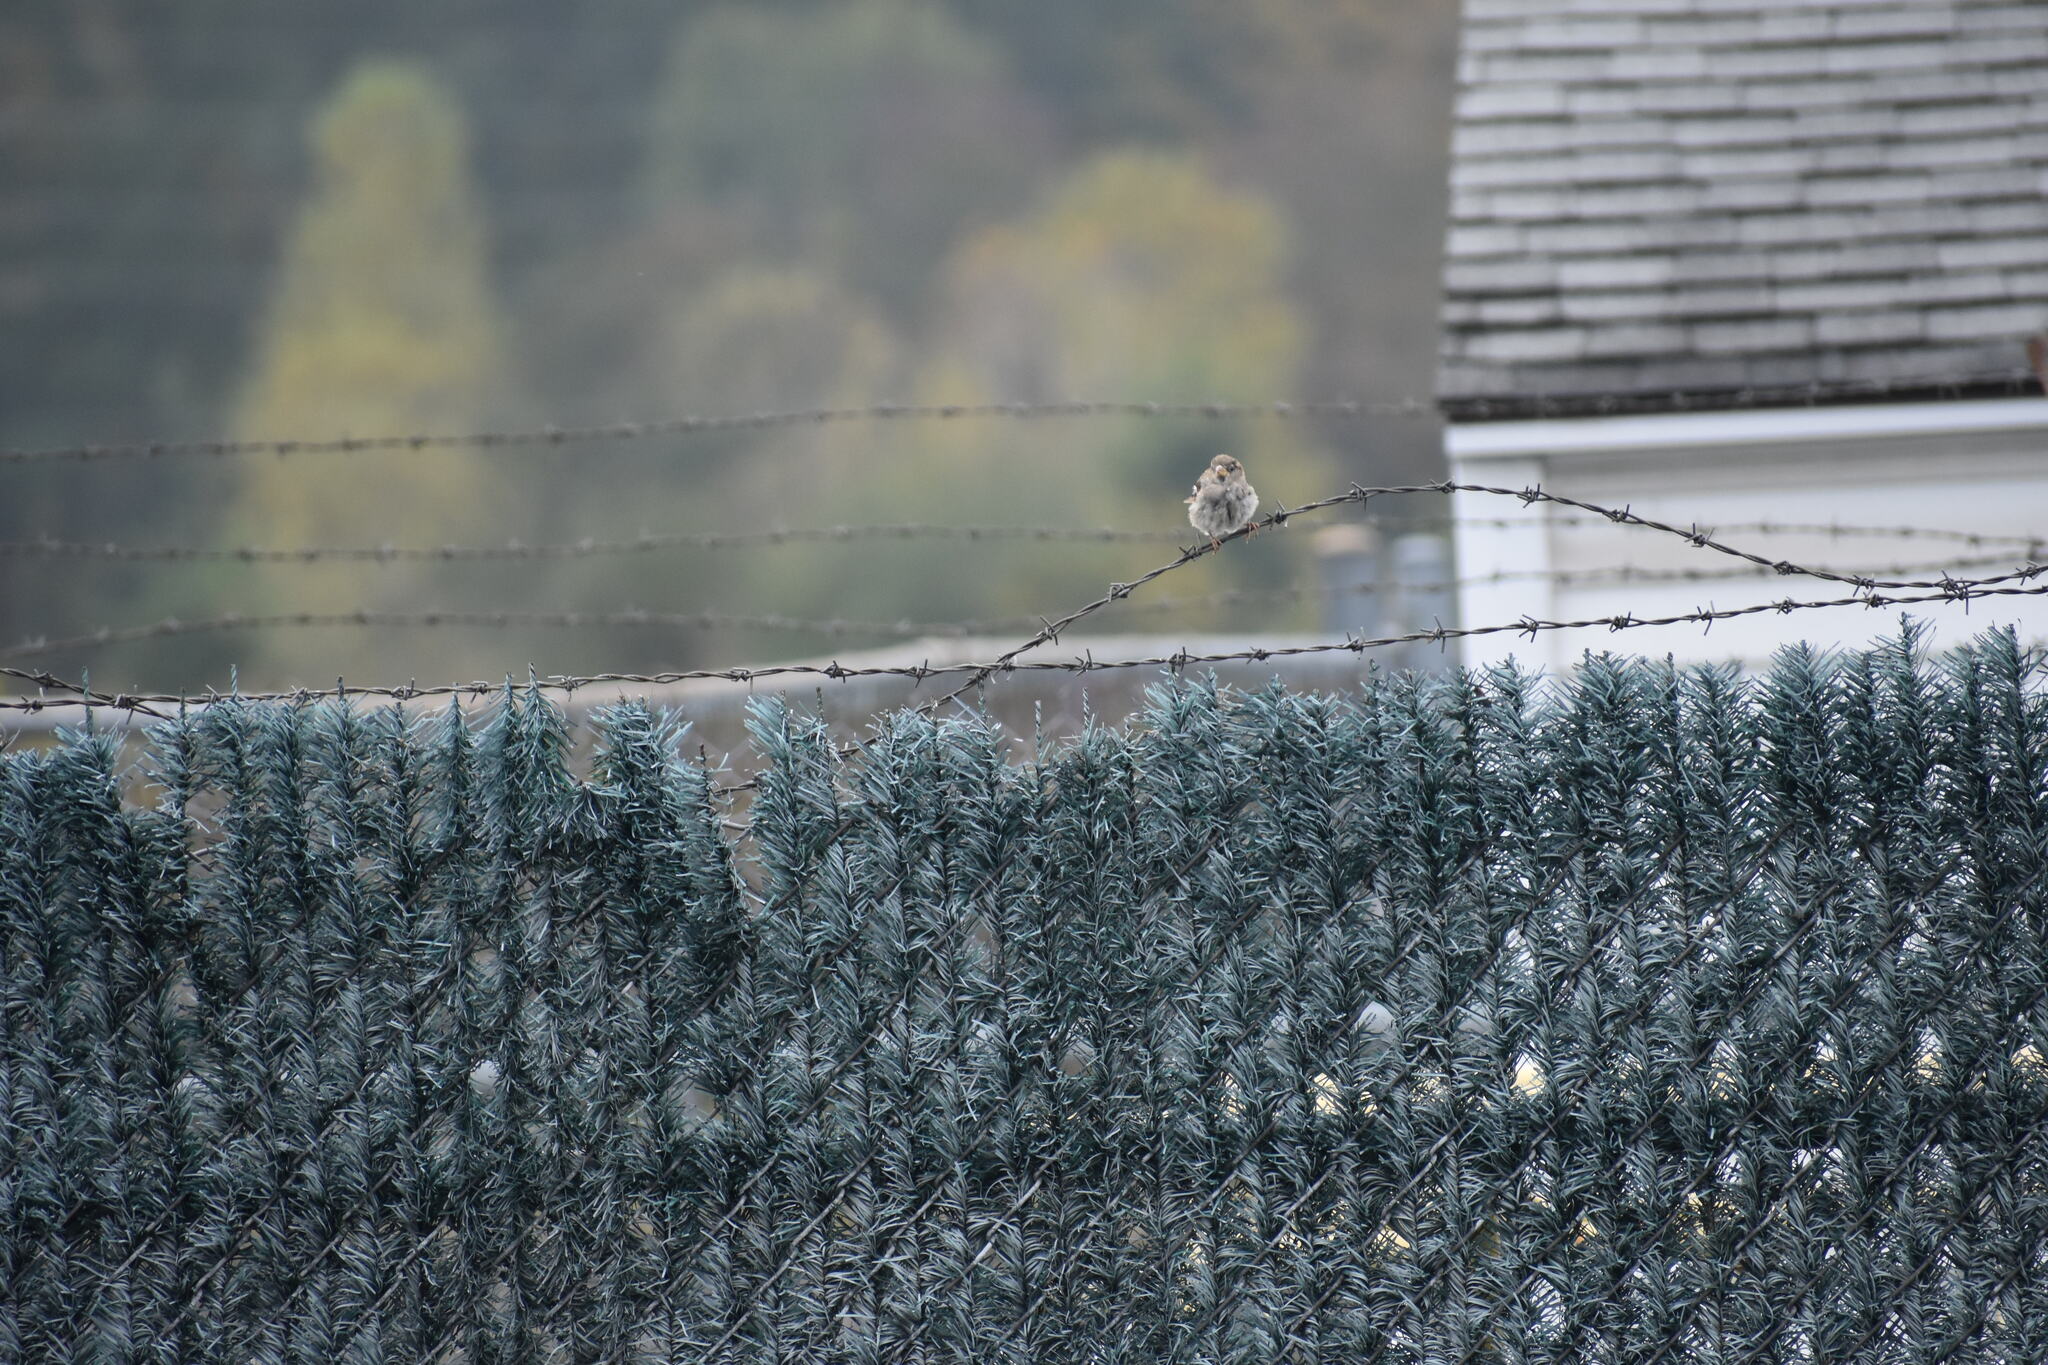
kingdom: Animalia
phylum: Chordata
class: Aves
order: Passeriformes
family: Passeridae
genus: Passer
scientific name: Passer domesticus
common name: House sparrow
